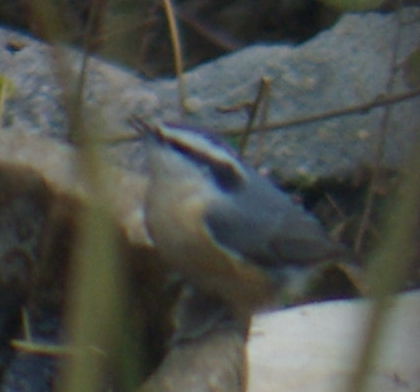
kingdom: Animalia
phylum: Chordata
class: Aves
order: Passeriformes
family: Sittidae
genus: Sitta
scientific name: Sitta canadensis
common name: Red-breasted nuthatch
